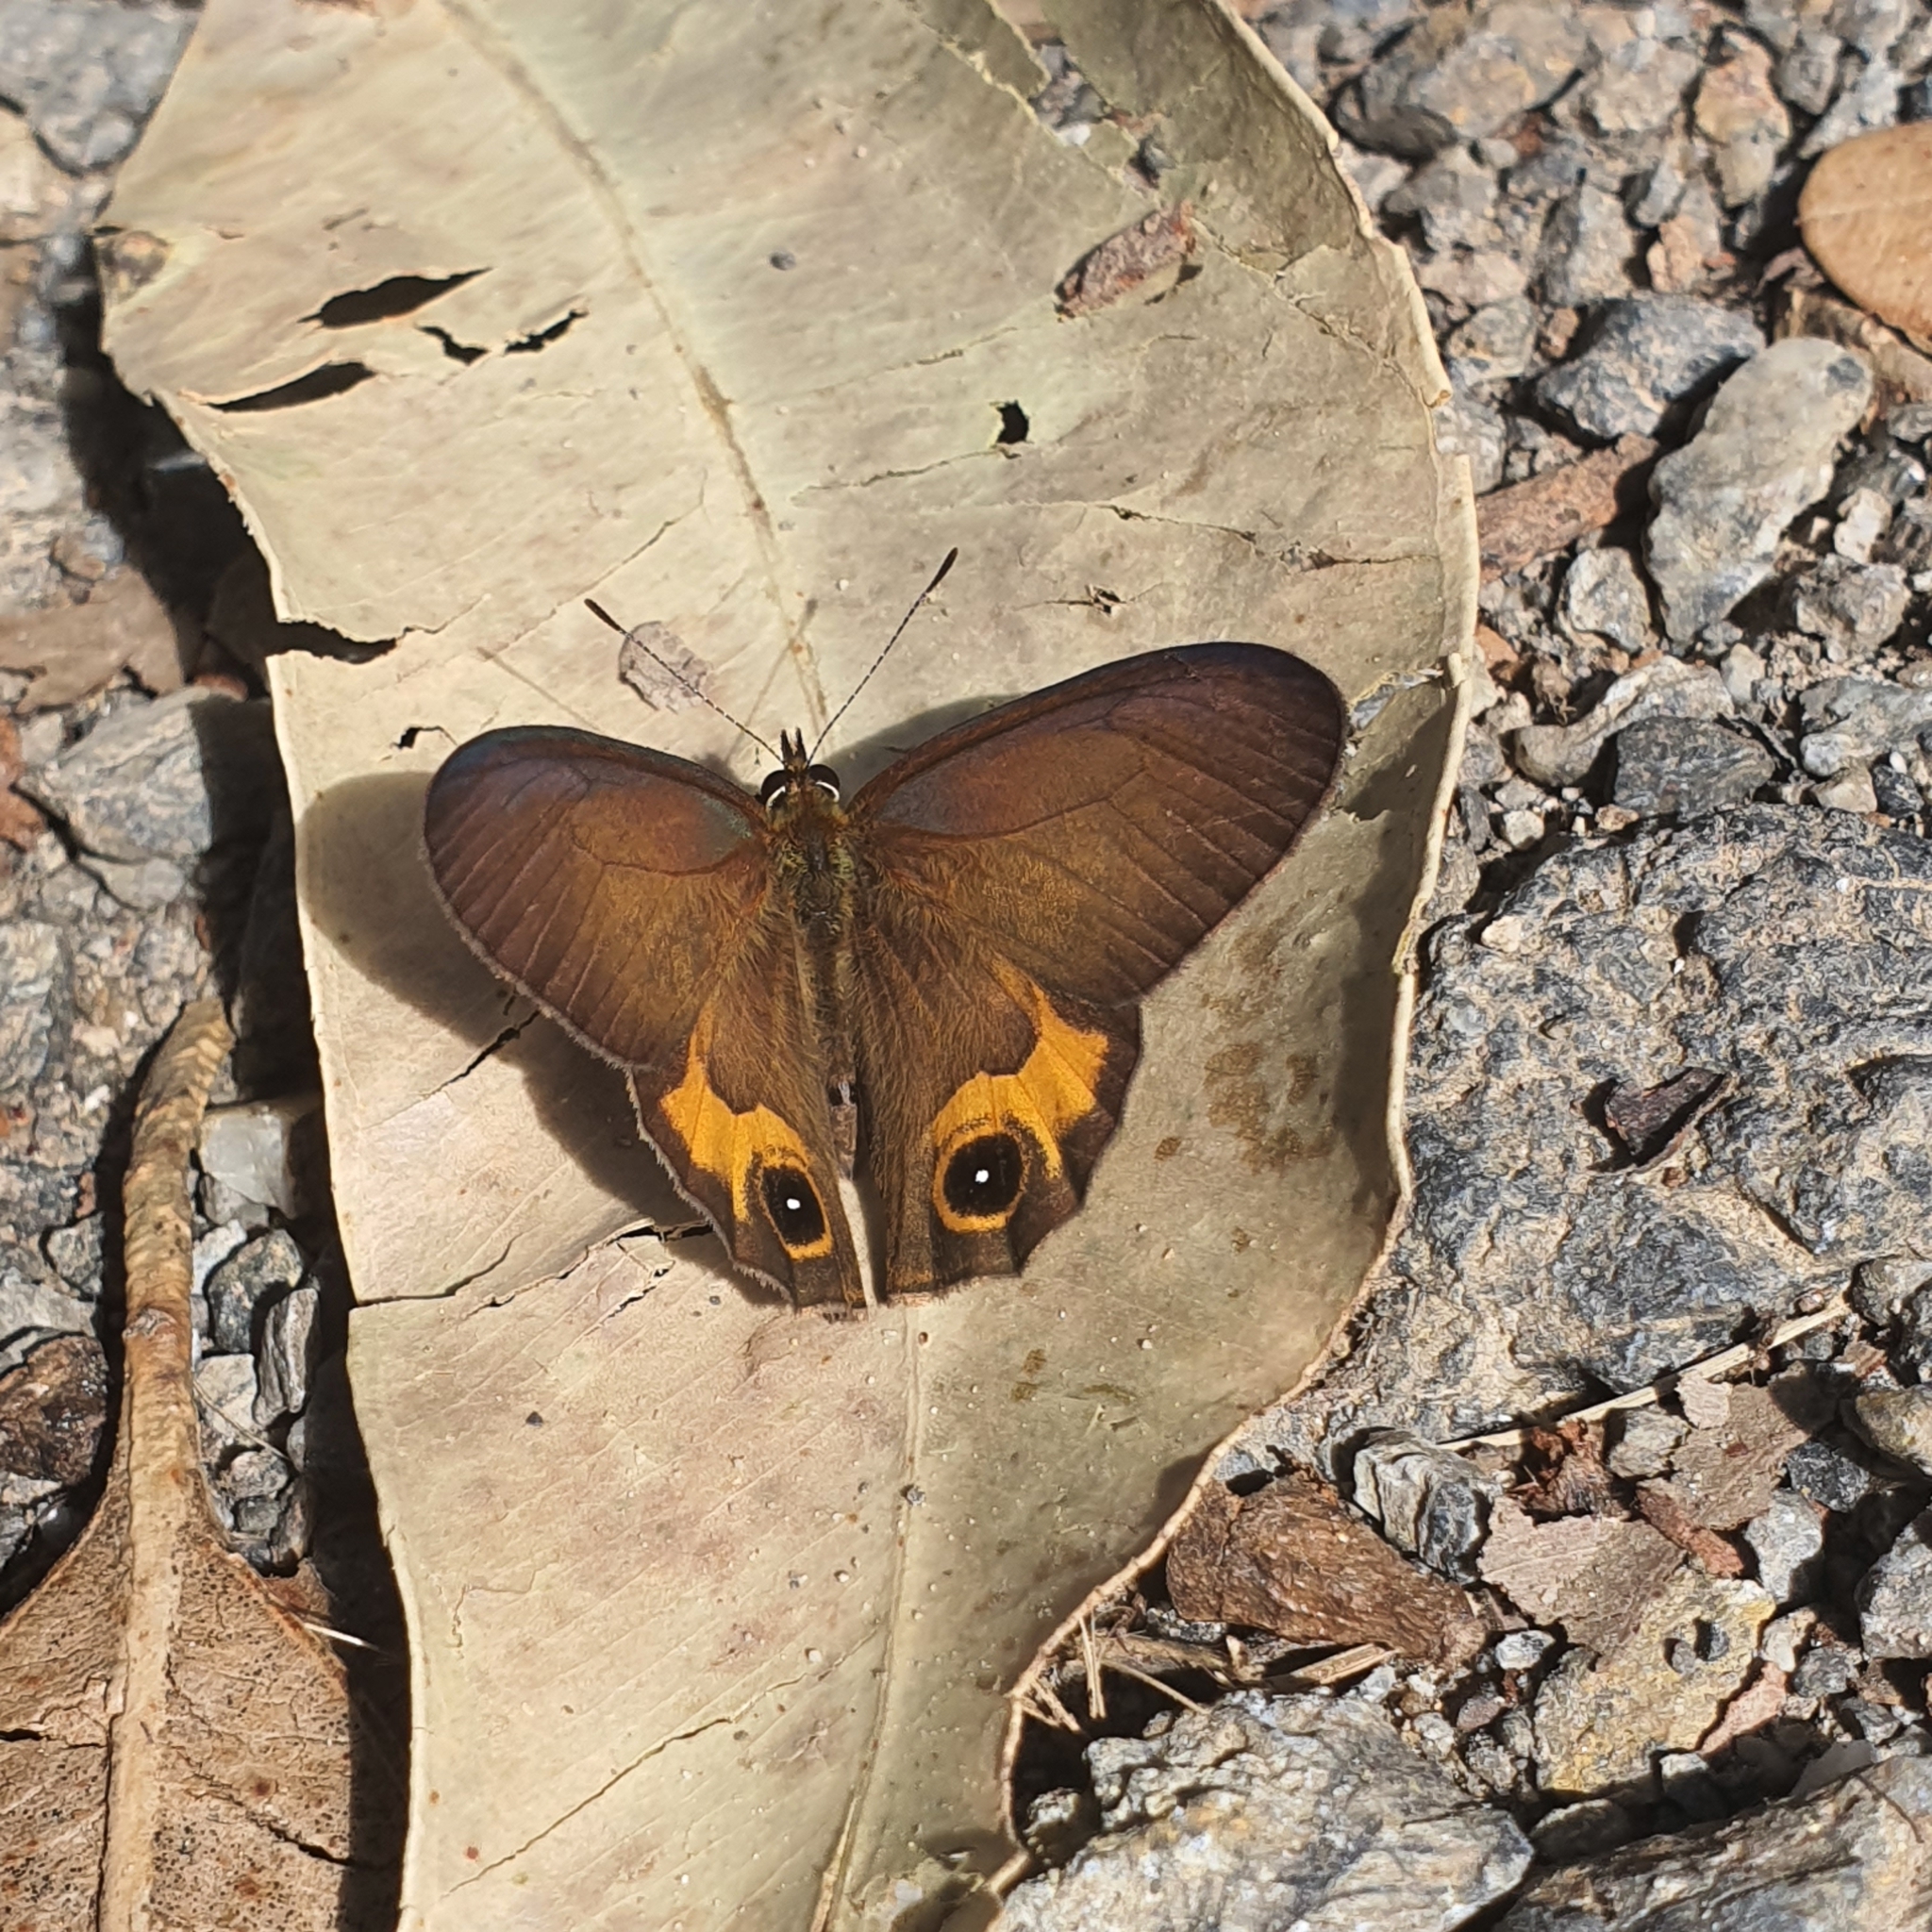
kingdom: Animalia
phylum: Arthropoda
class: Insecta
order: Lepidoptera
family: Nymphalidae
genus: Hypocysta
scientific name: Hypocysta metirius
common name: Brown ringlet
